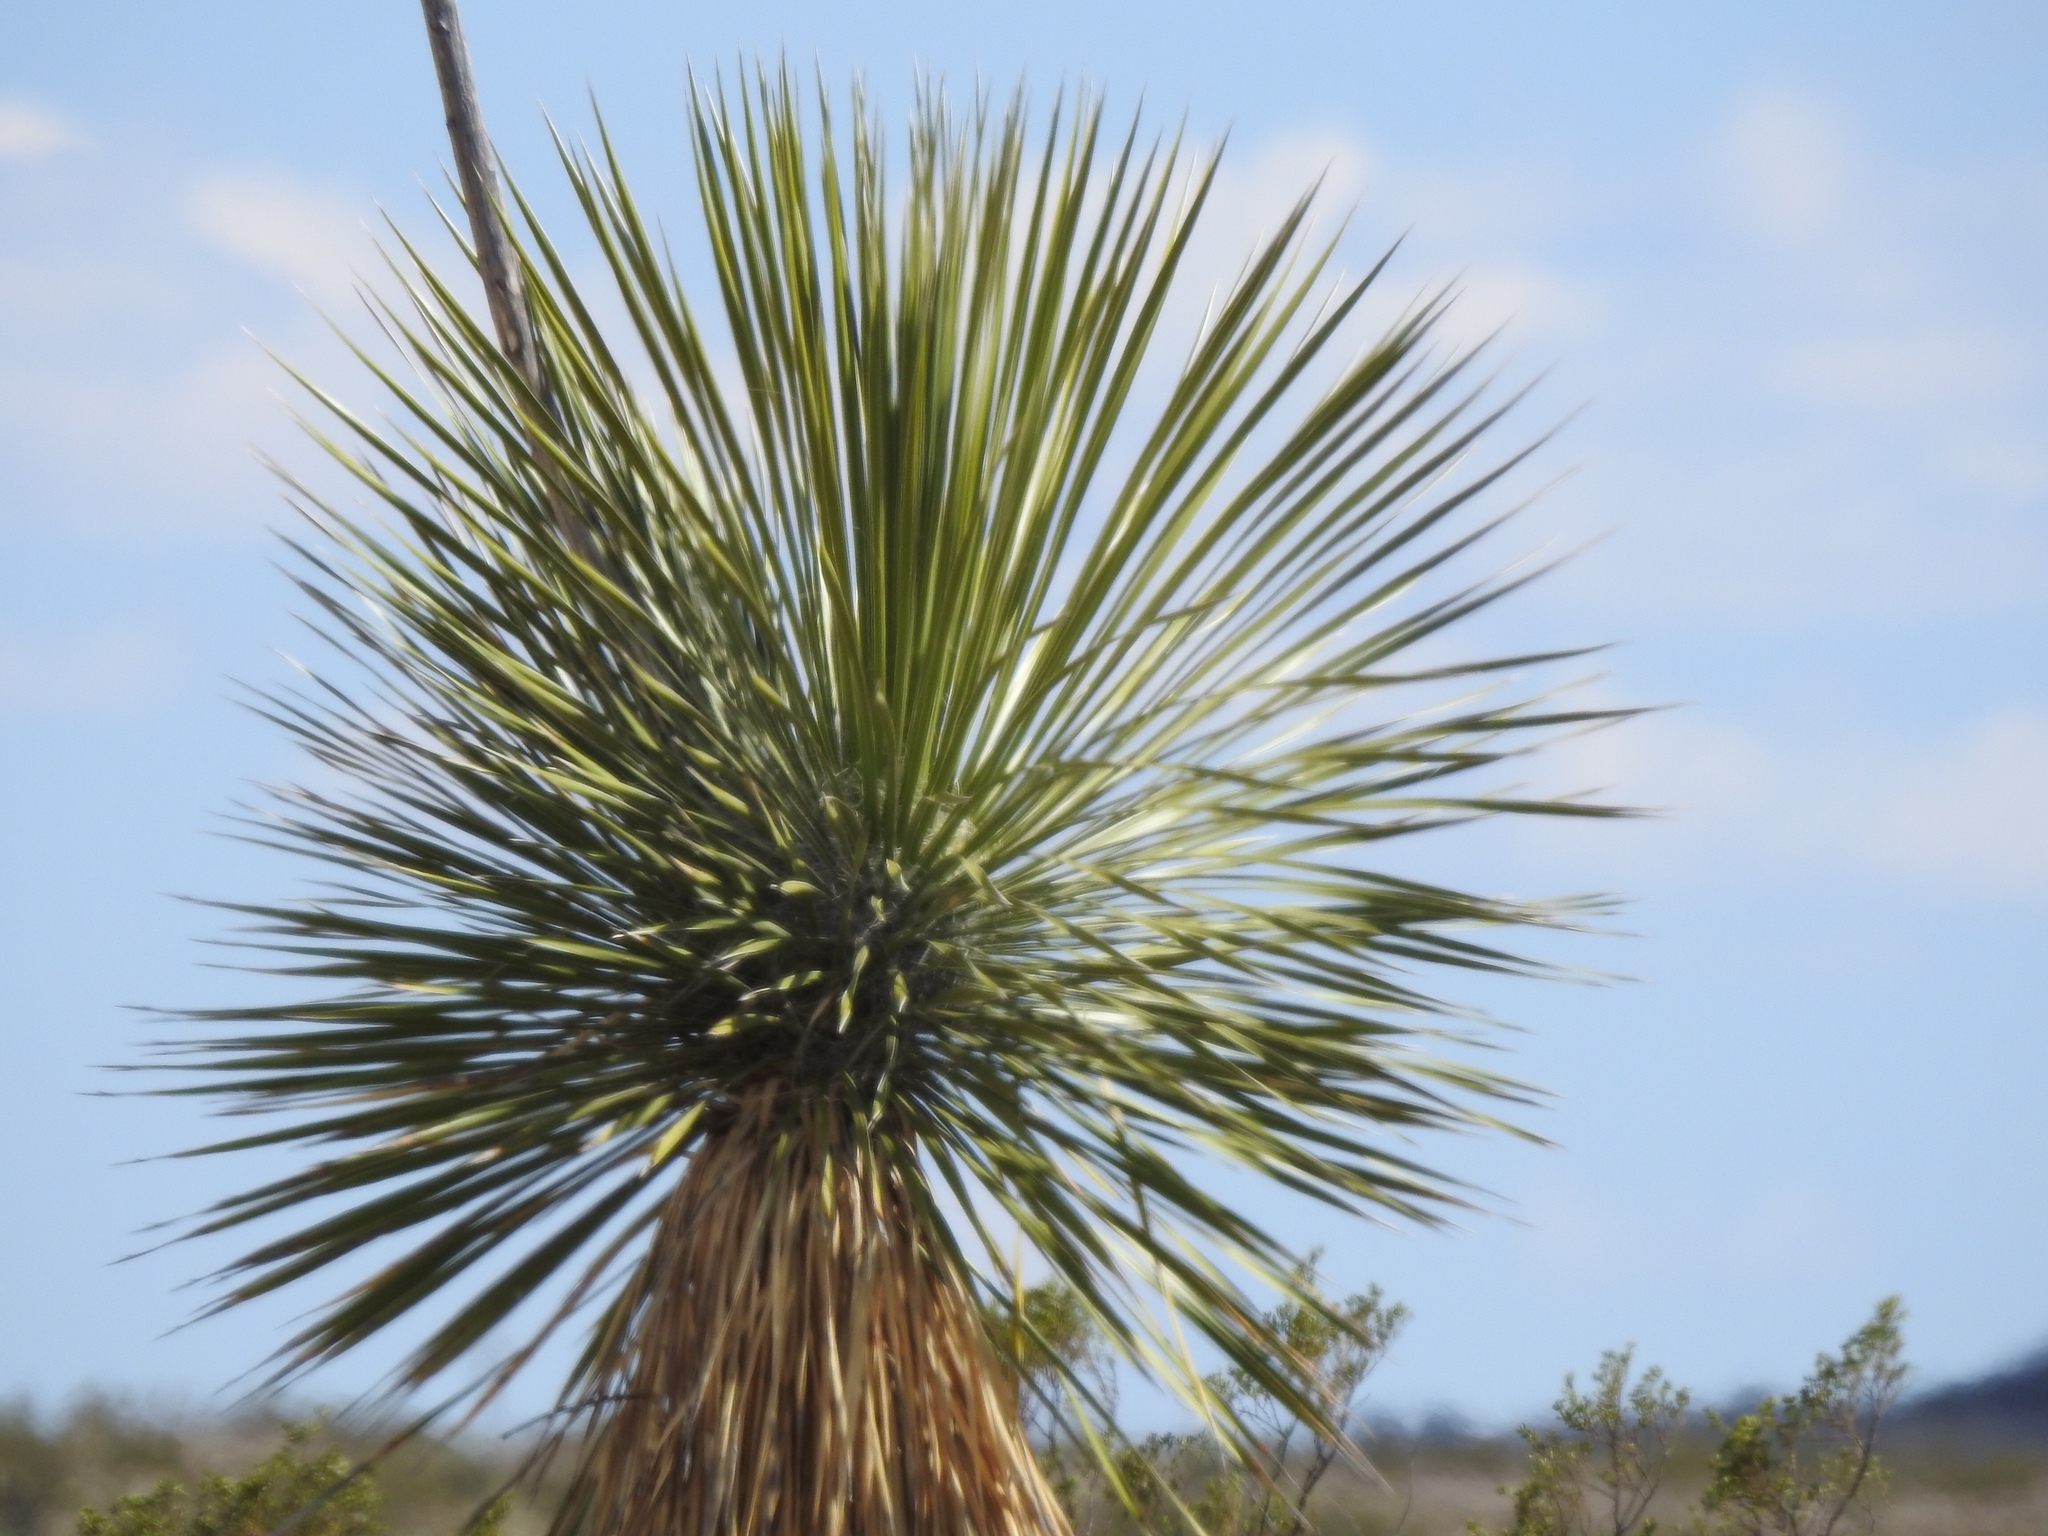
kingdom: Plantae
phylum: Tracheophyta
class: Liliopsida
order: Asparagales
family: Asparagaceae
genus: Yucca
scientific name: Yucca elata
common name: Palmella
